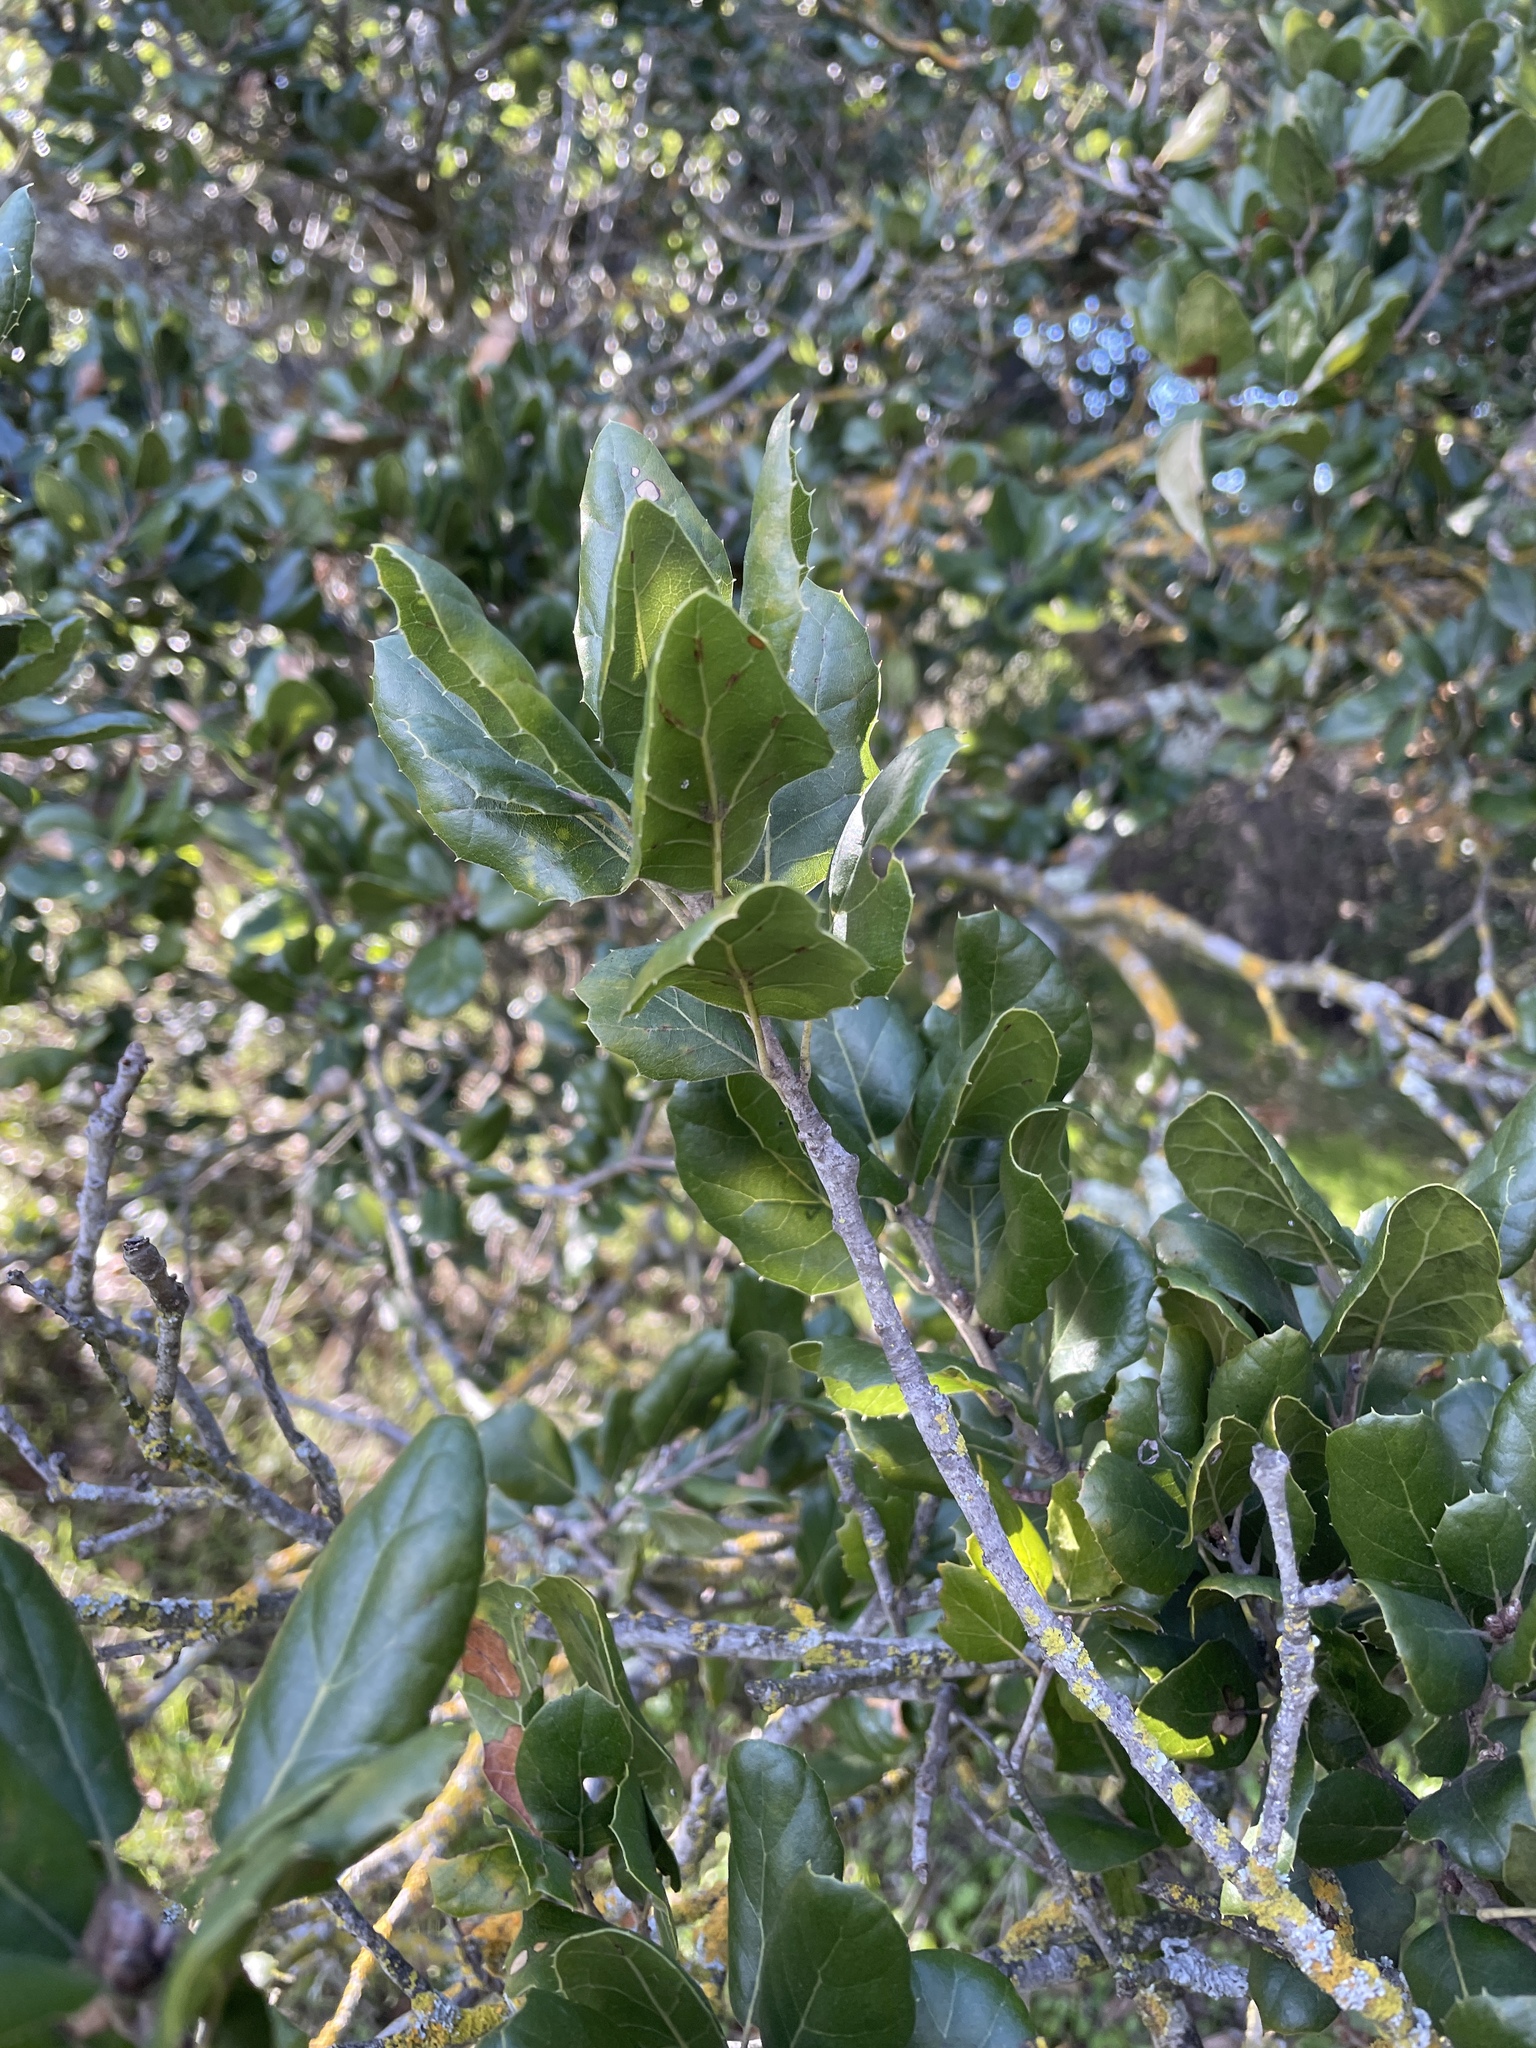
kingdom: Plantae
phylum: Tracheophyta
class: Magnoliopsida
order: Fagales
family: Fagaceae
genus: Quercus
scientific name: Quercus agrifolia
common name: California live oak
